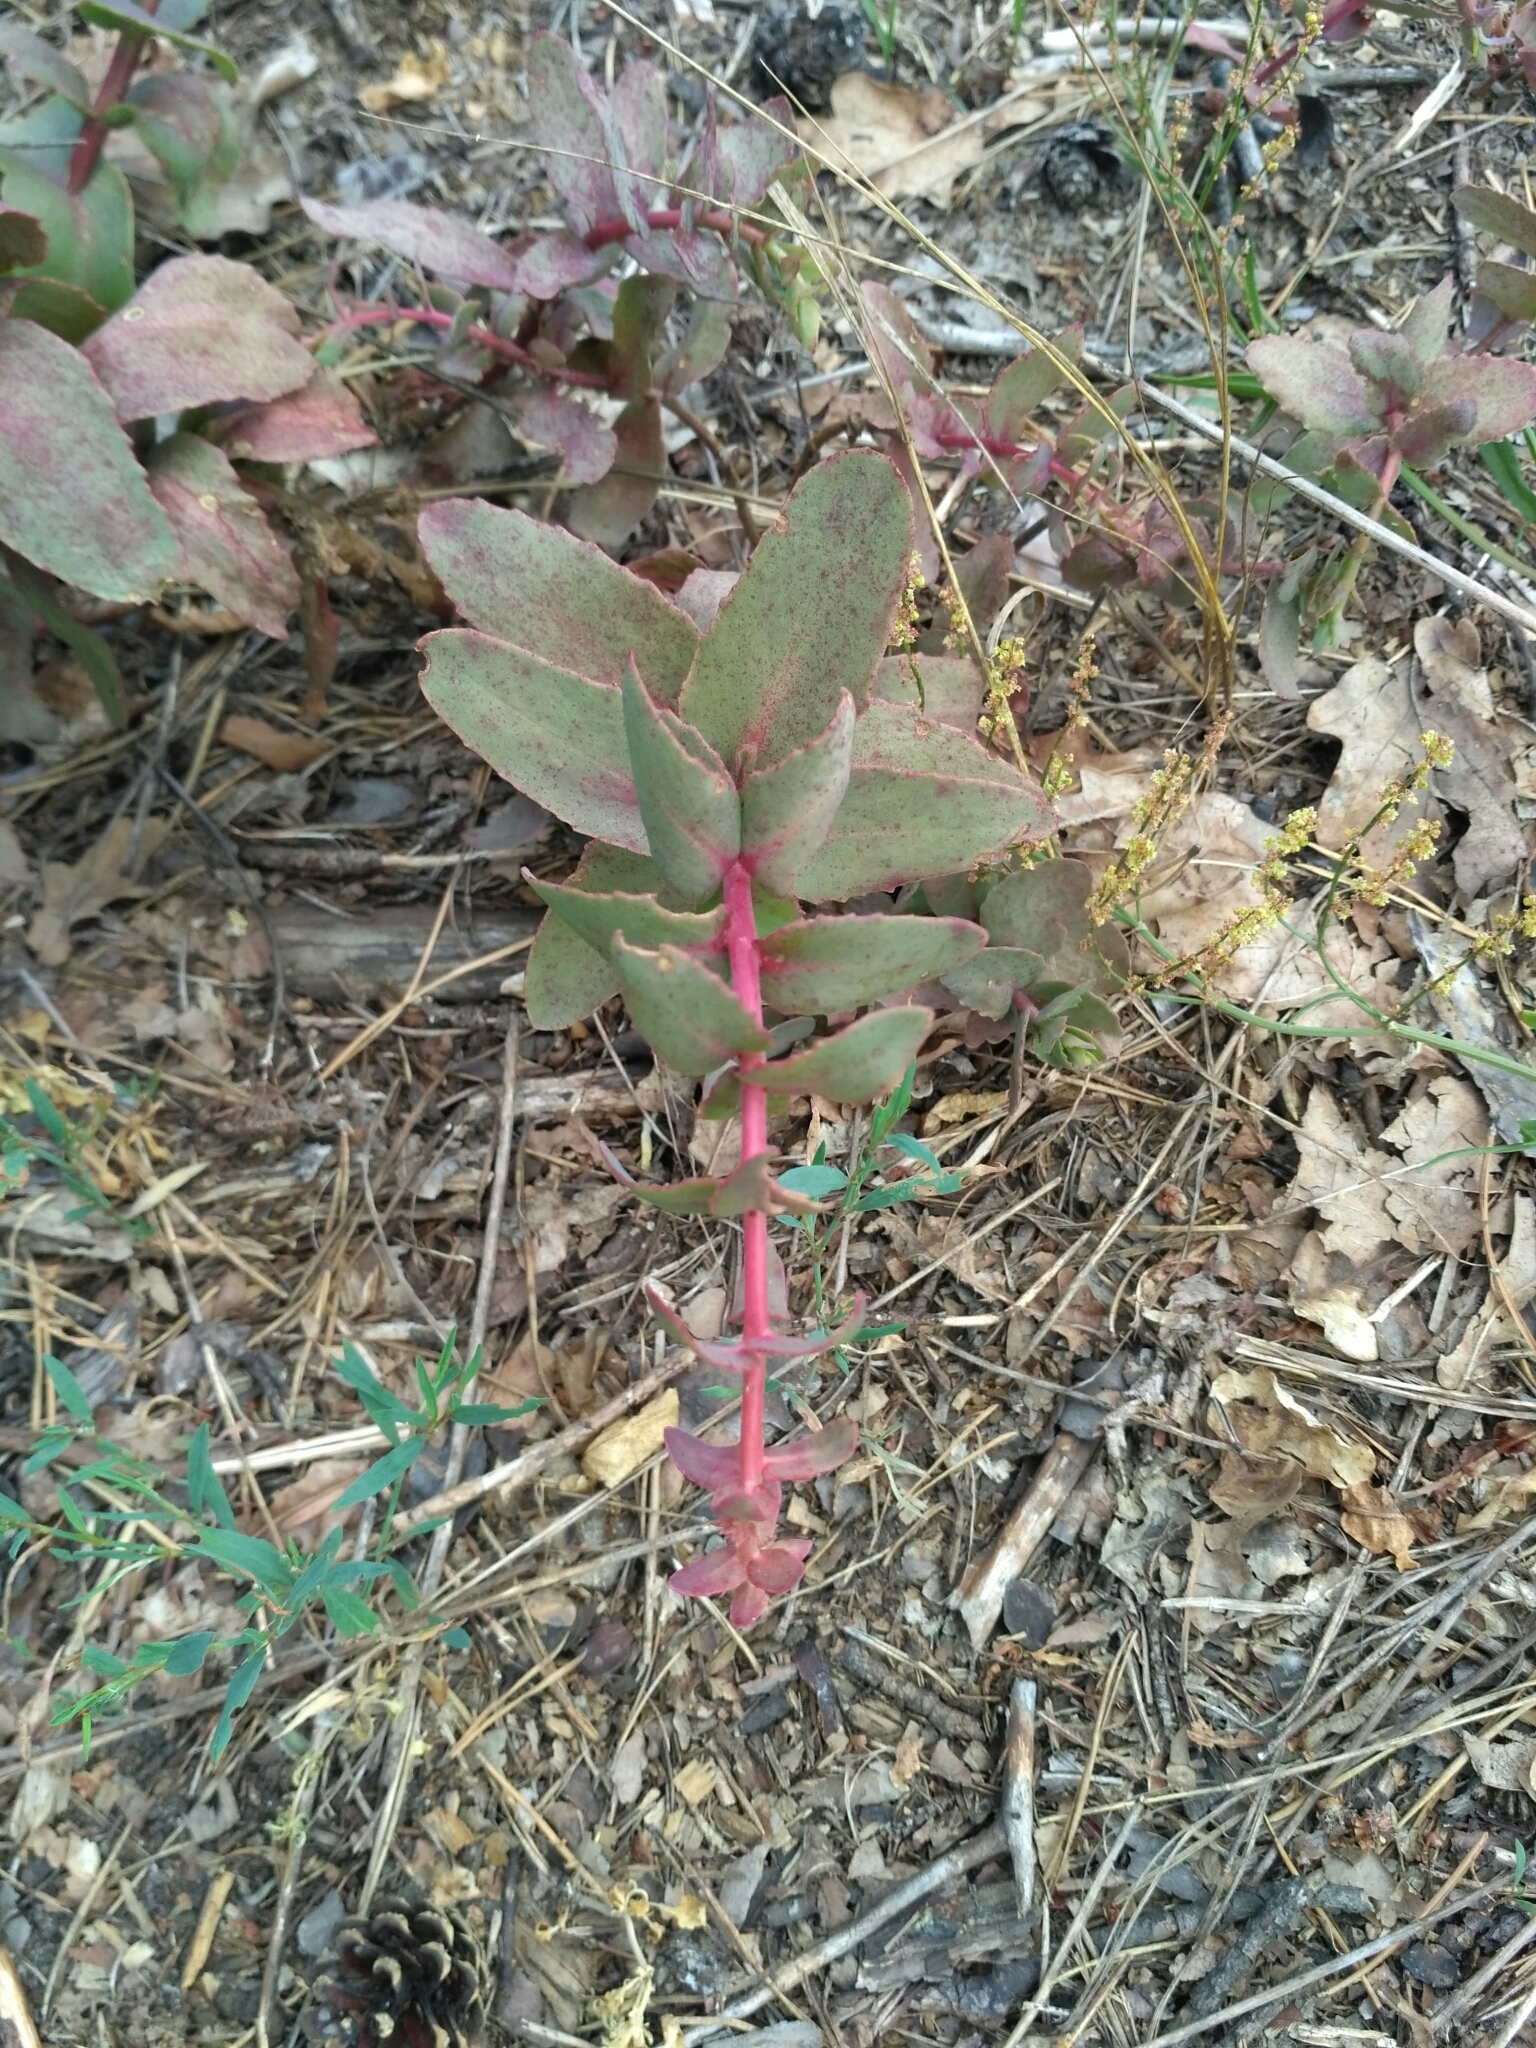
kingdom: Plantae
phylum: Tracheophyta
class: Magnoliopsida
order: Saxifragales
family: Crassulaceae
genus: Hylotelephium
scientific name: Hylotelephium maximum
